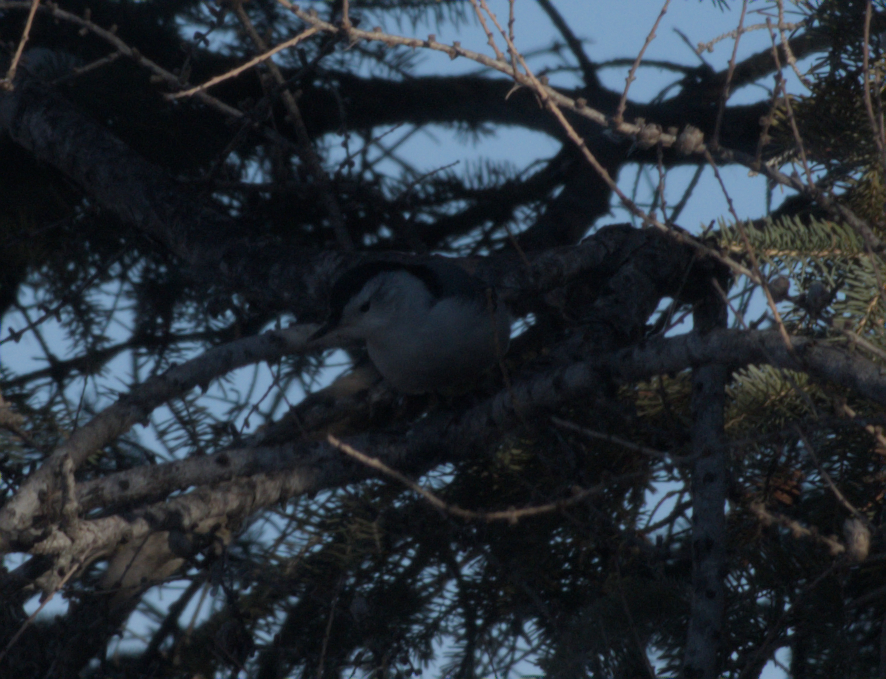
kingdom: Animalia
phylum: Chordata
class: Aves
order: Passeriformes
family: Sittidae
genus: Sitta
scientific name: Sitta carolinensis
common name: White-breasted nuthatch
